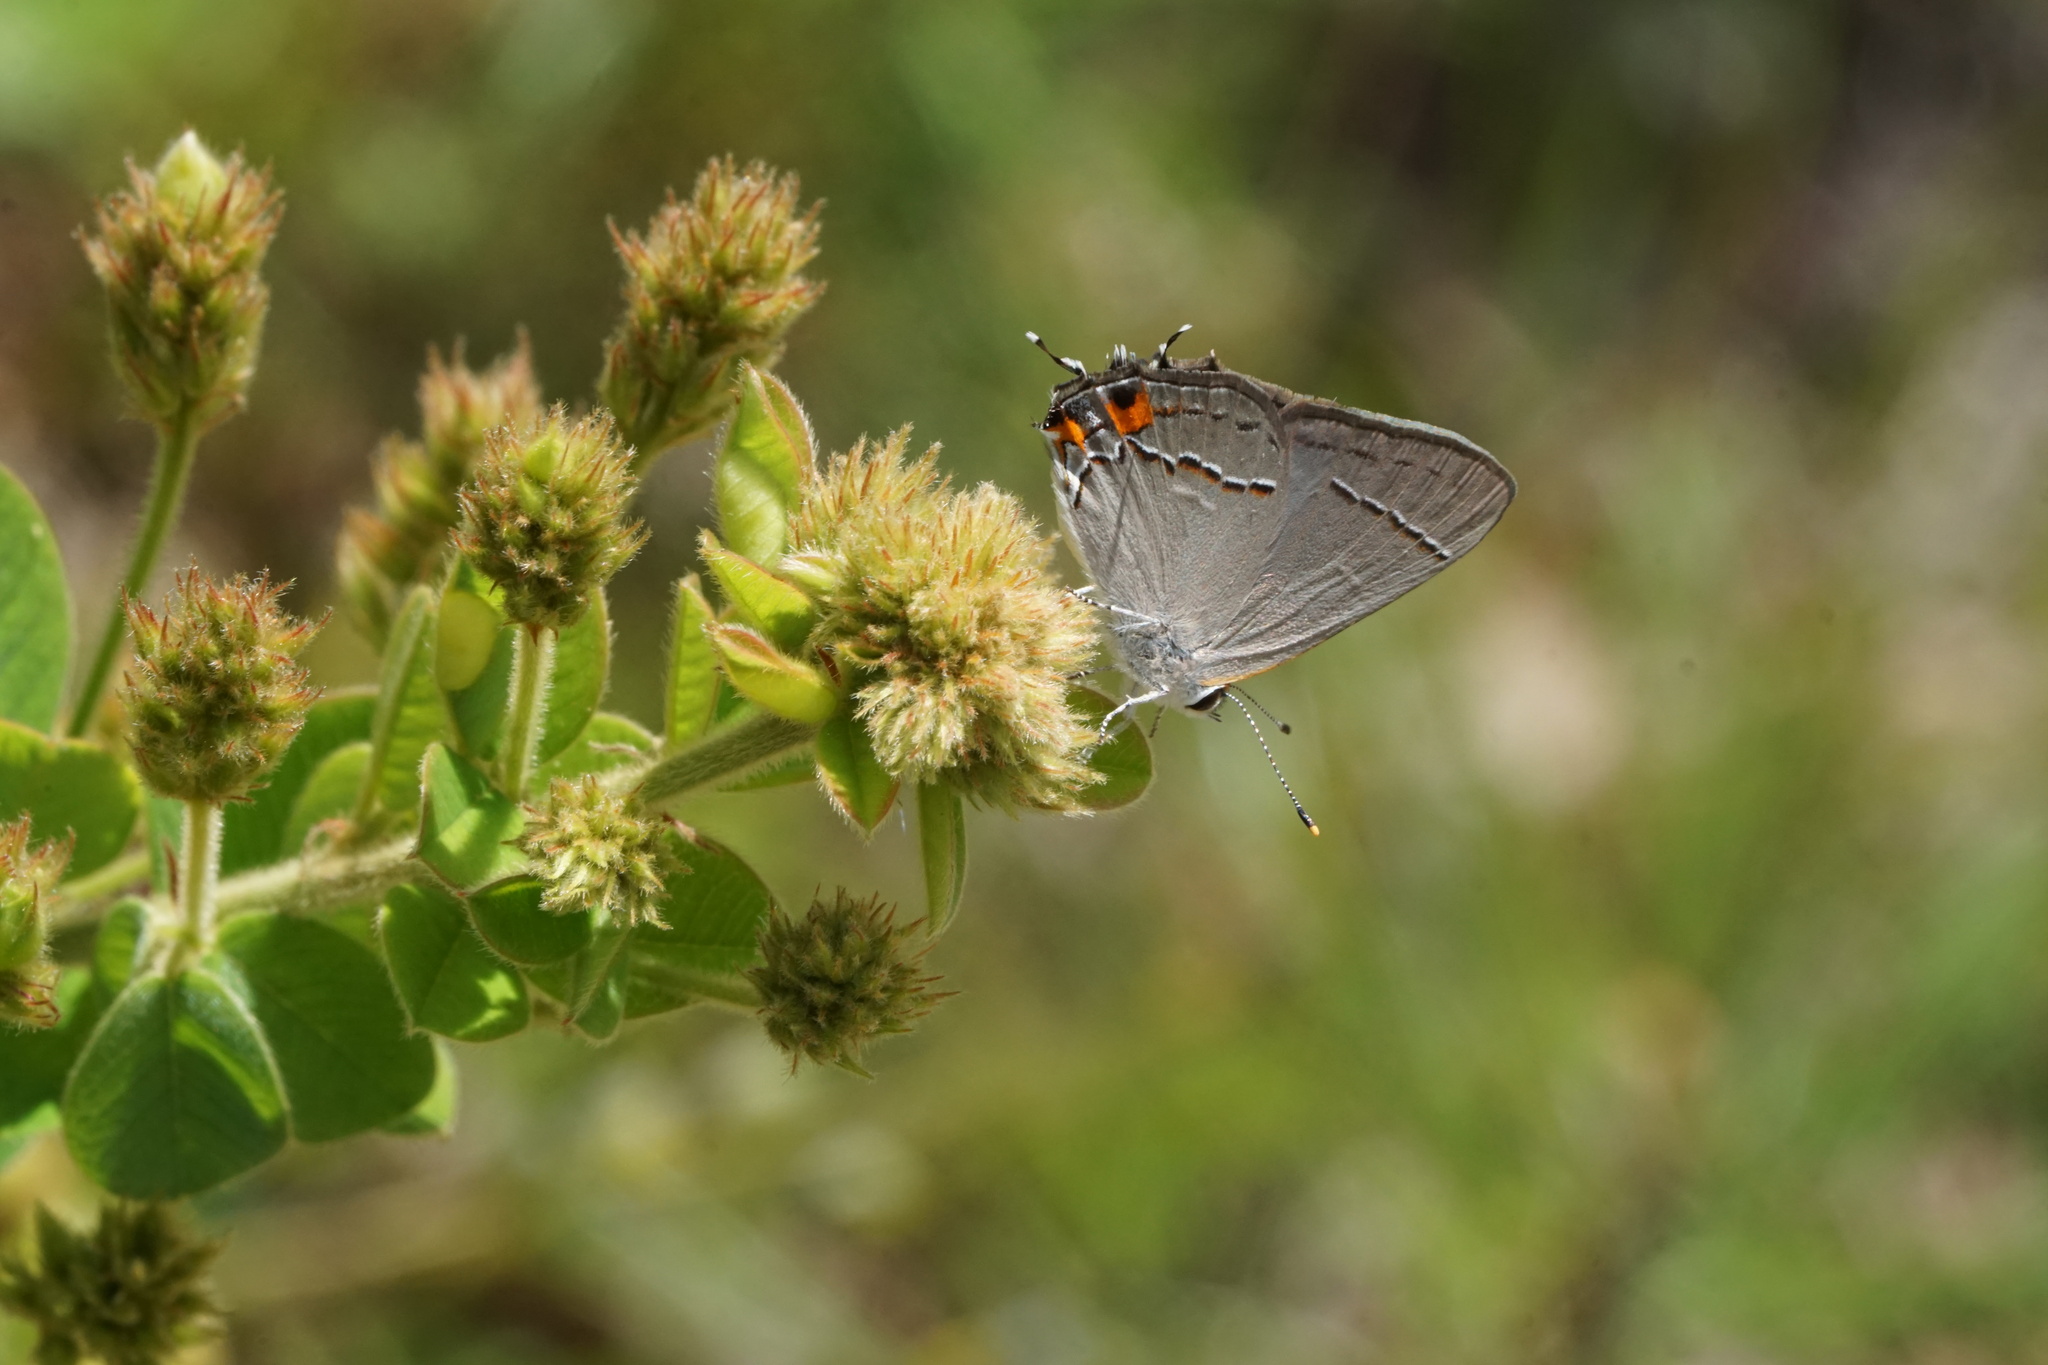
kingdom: Animalia
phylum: Arthropoda
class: Insecta
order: Lepidoptera
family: Lycaenidae
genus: Strymon
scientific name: Strymon melinus
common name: Gray hairstreak
